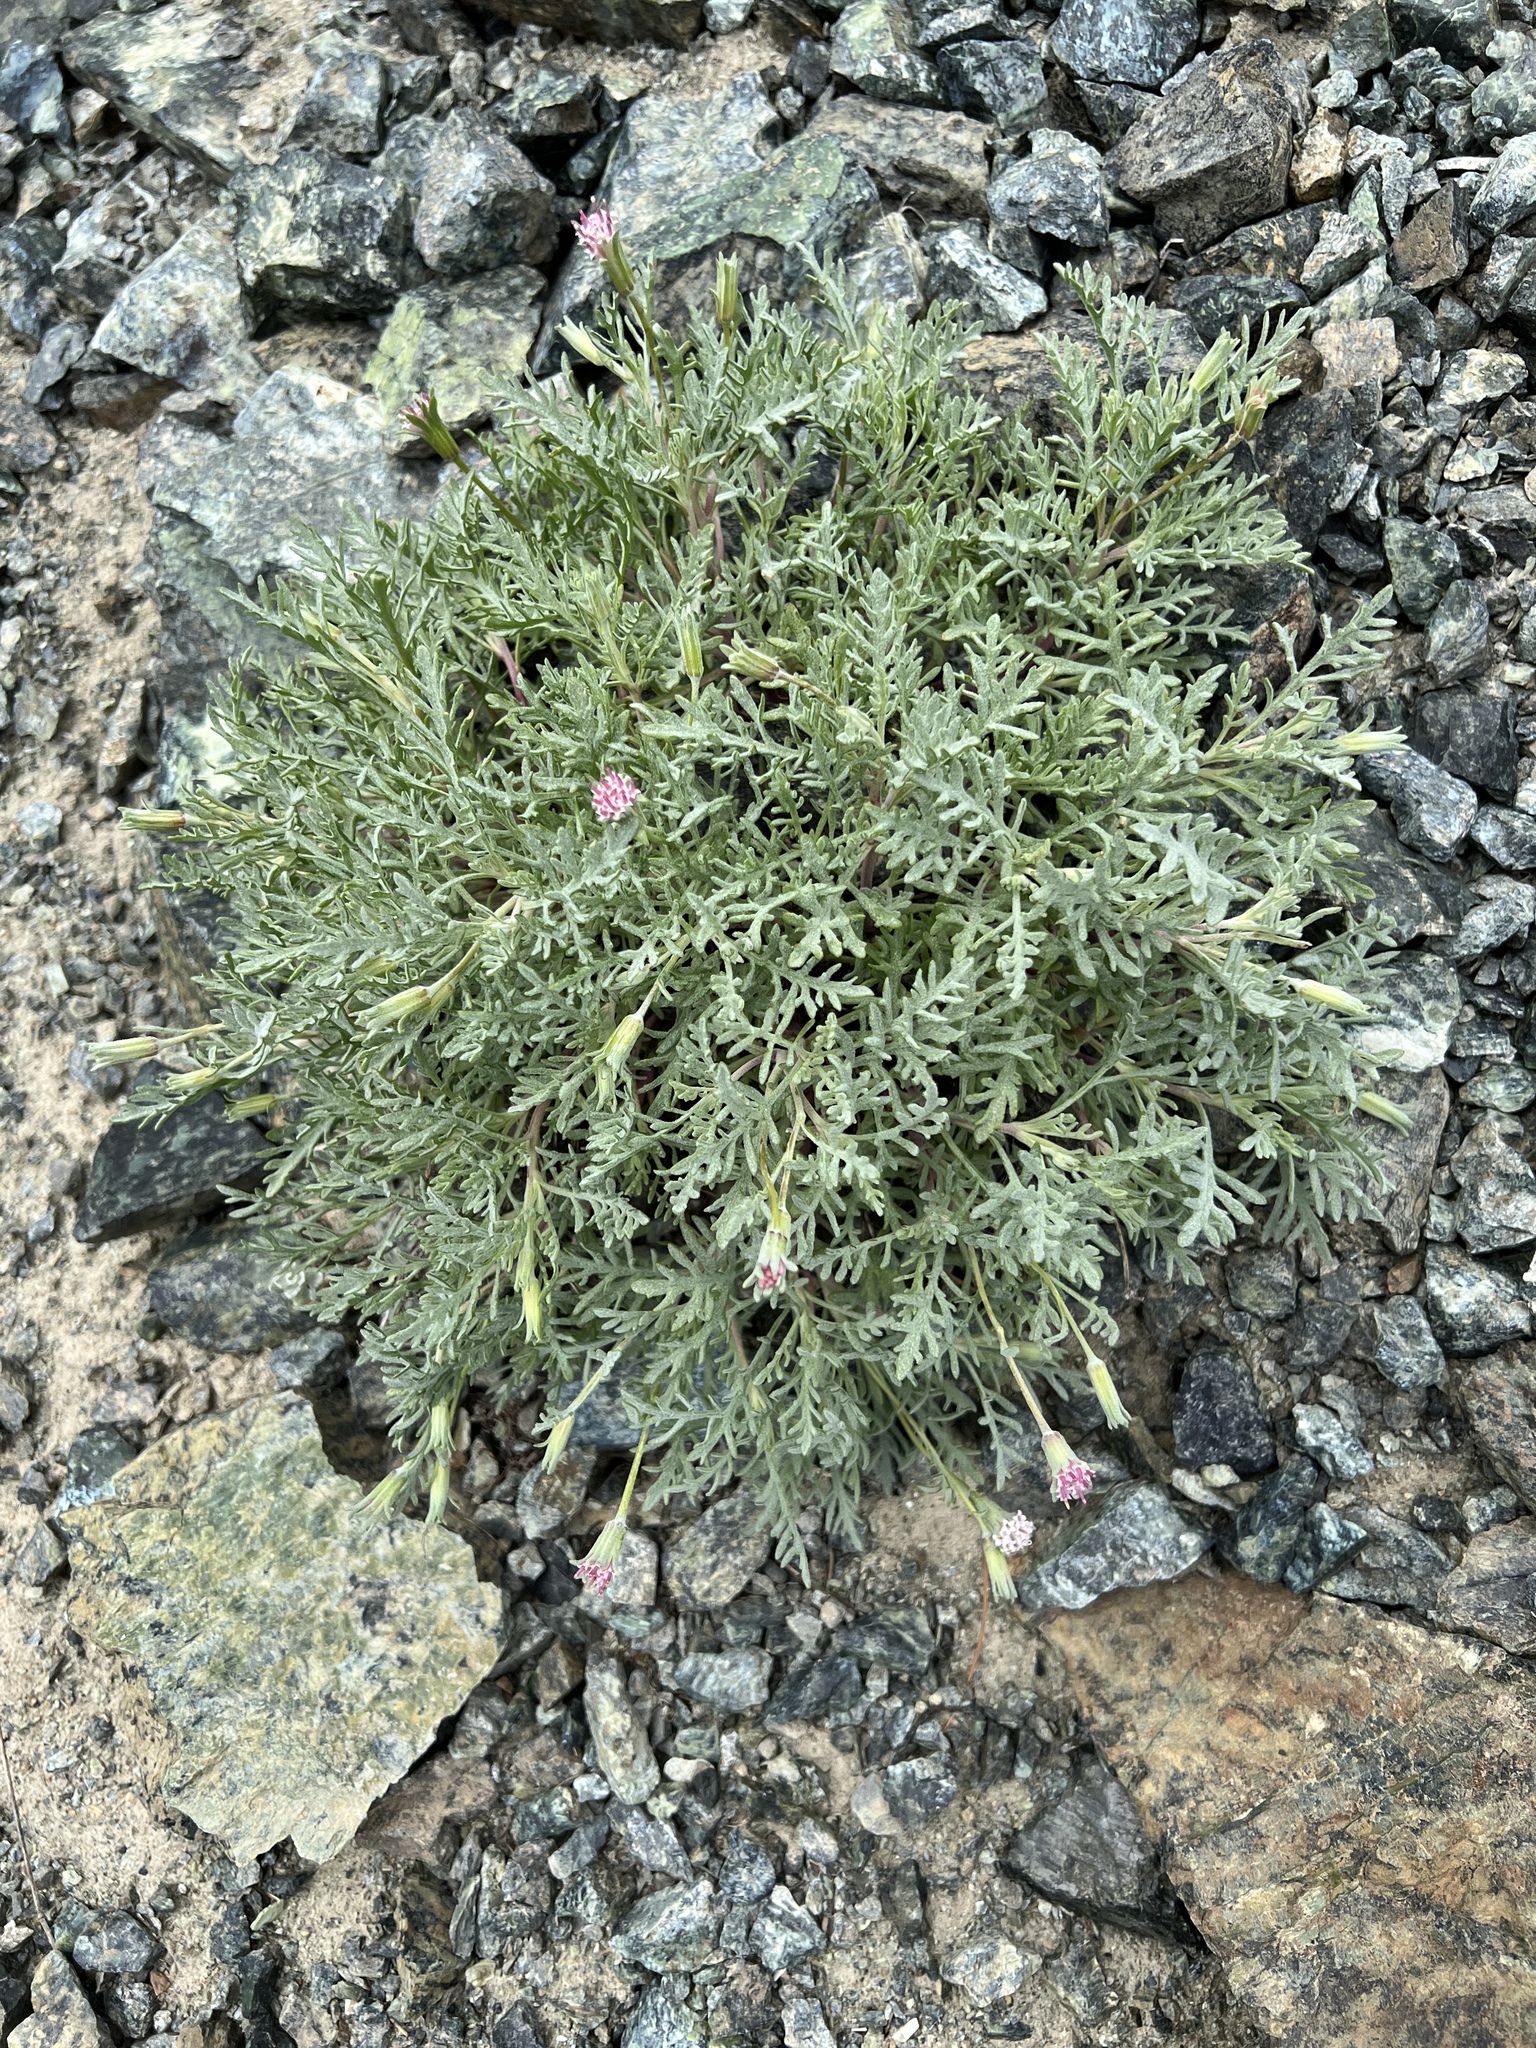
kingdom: Plantae
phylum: Tracheophyta
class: Magnoliopsida
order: Asterales
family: Asteraceae
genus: Chaenactis
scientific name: Chaenactis thompsonii
